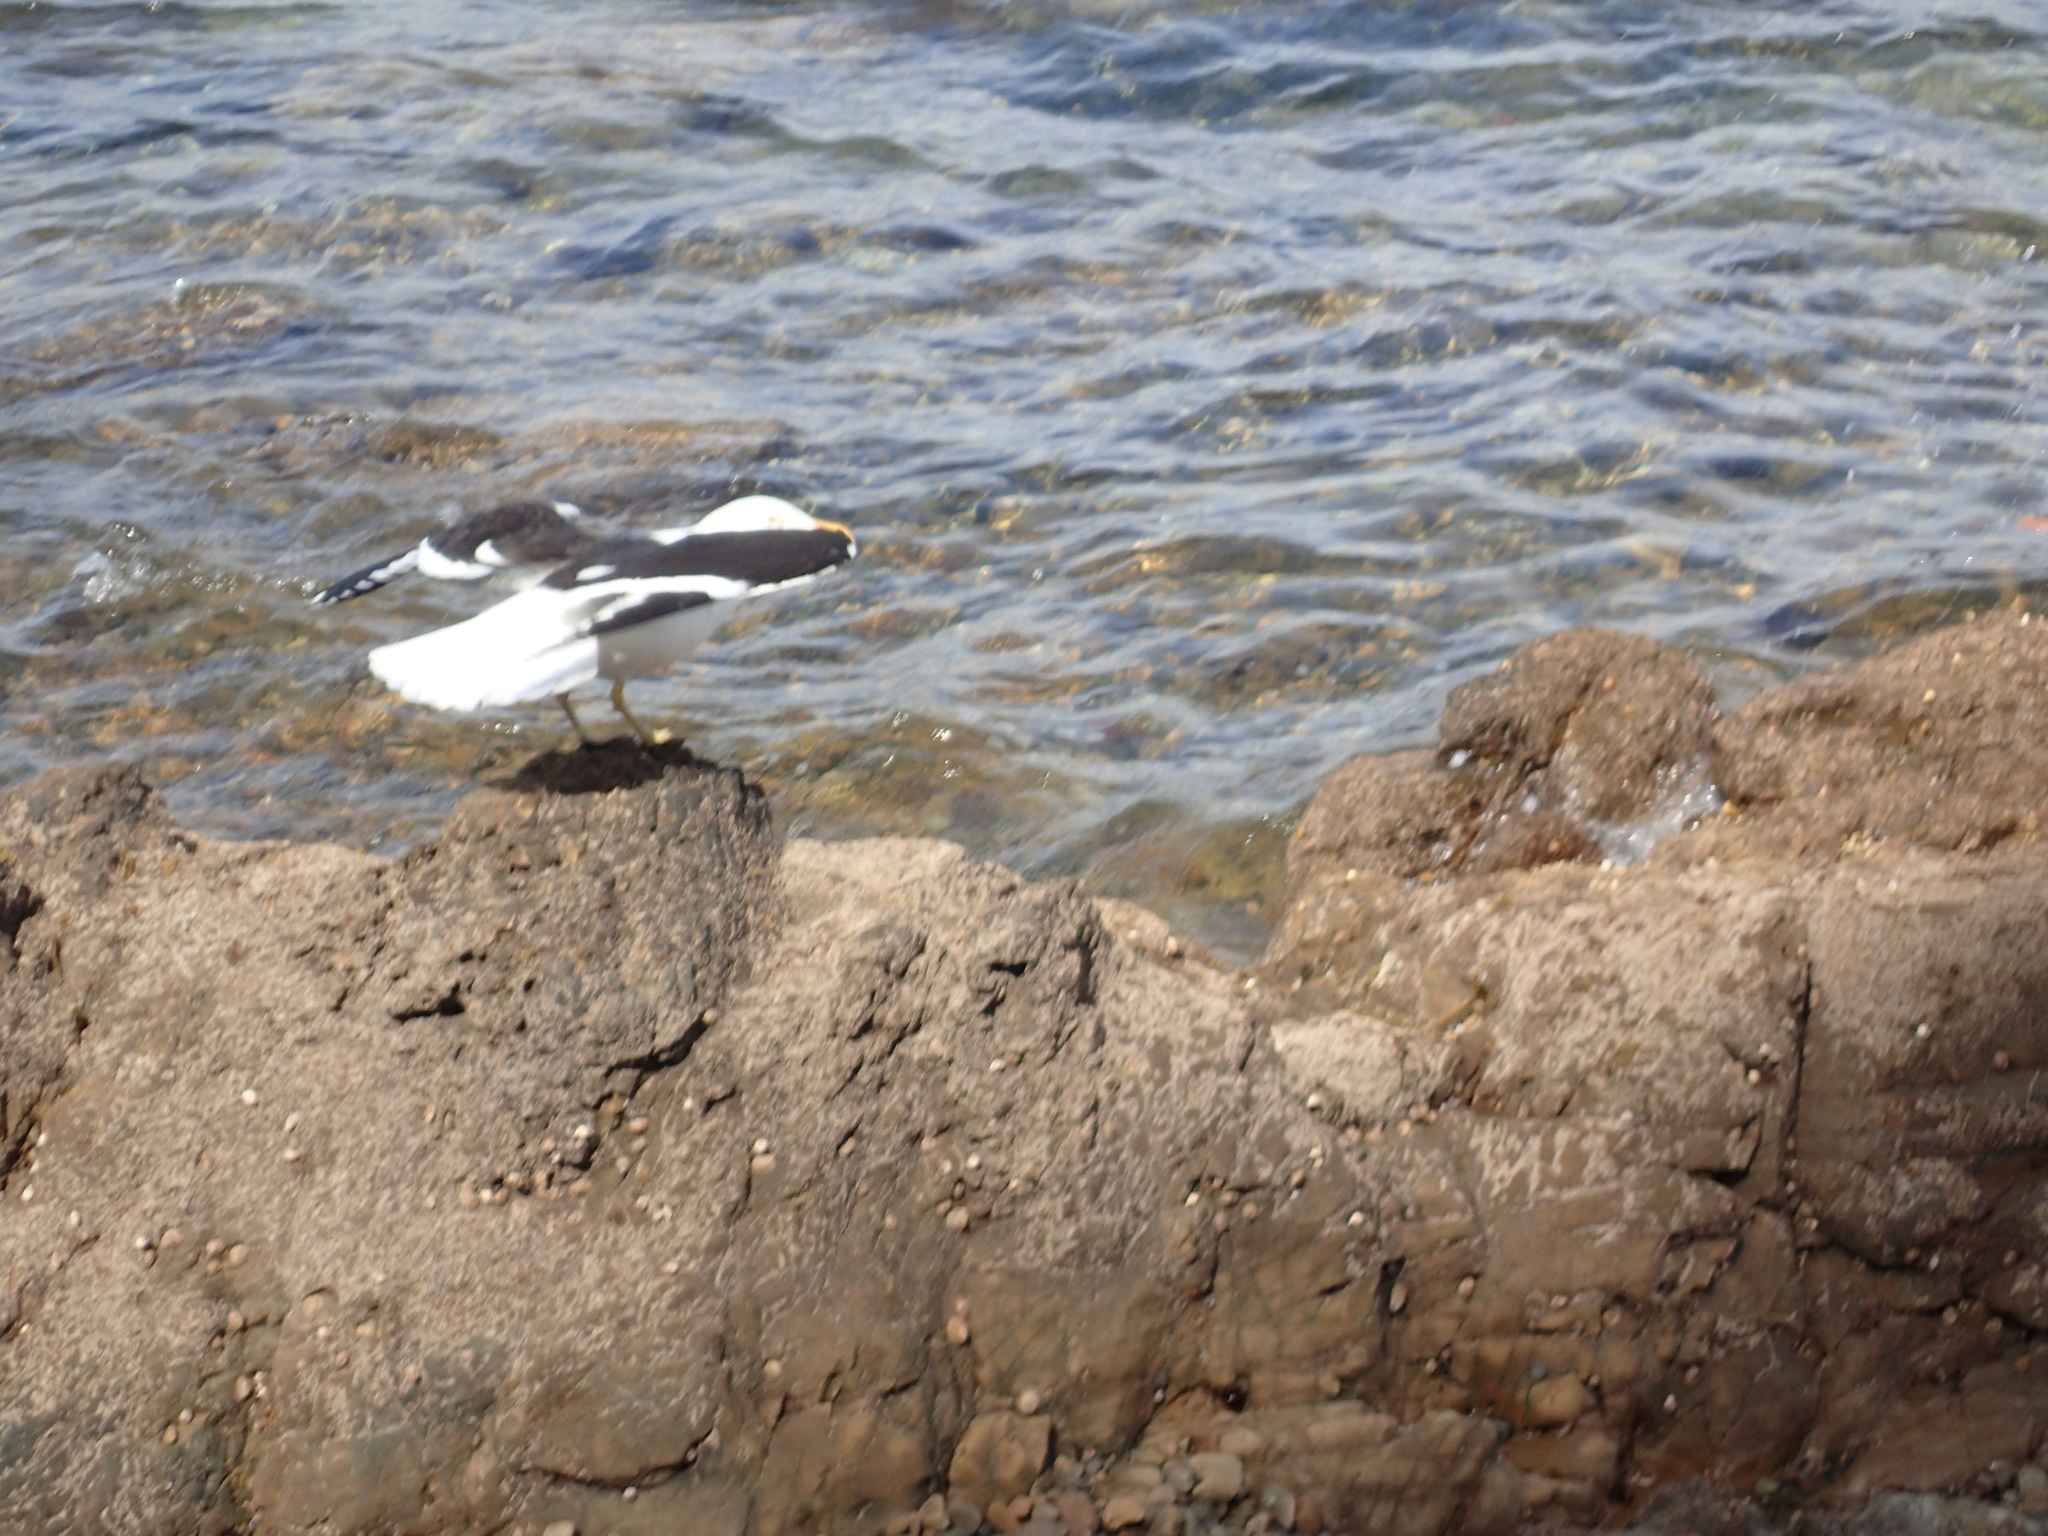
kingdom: Animalia
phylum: Chordata
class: Aves
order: Charadriiformes
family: Laridae
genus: Larus
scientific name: Larus dominicanus
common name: Kelp gull
